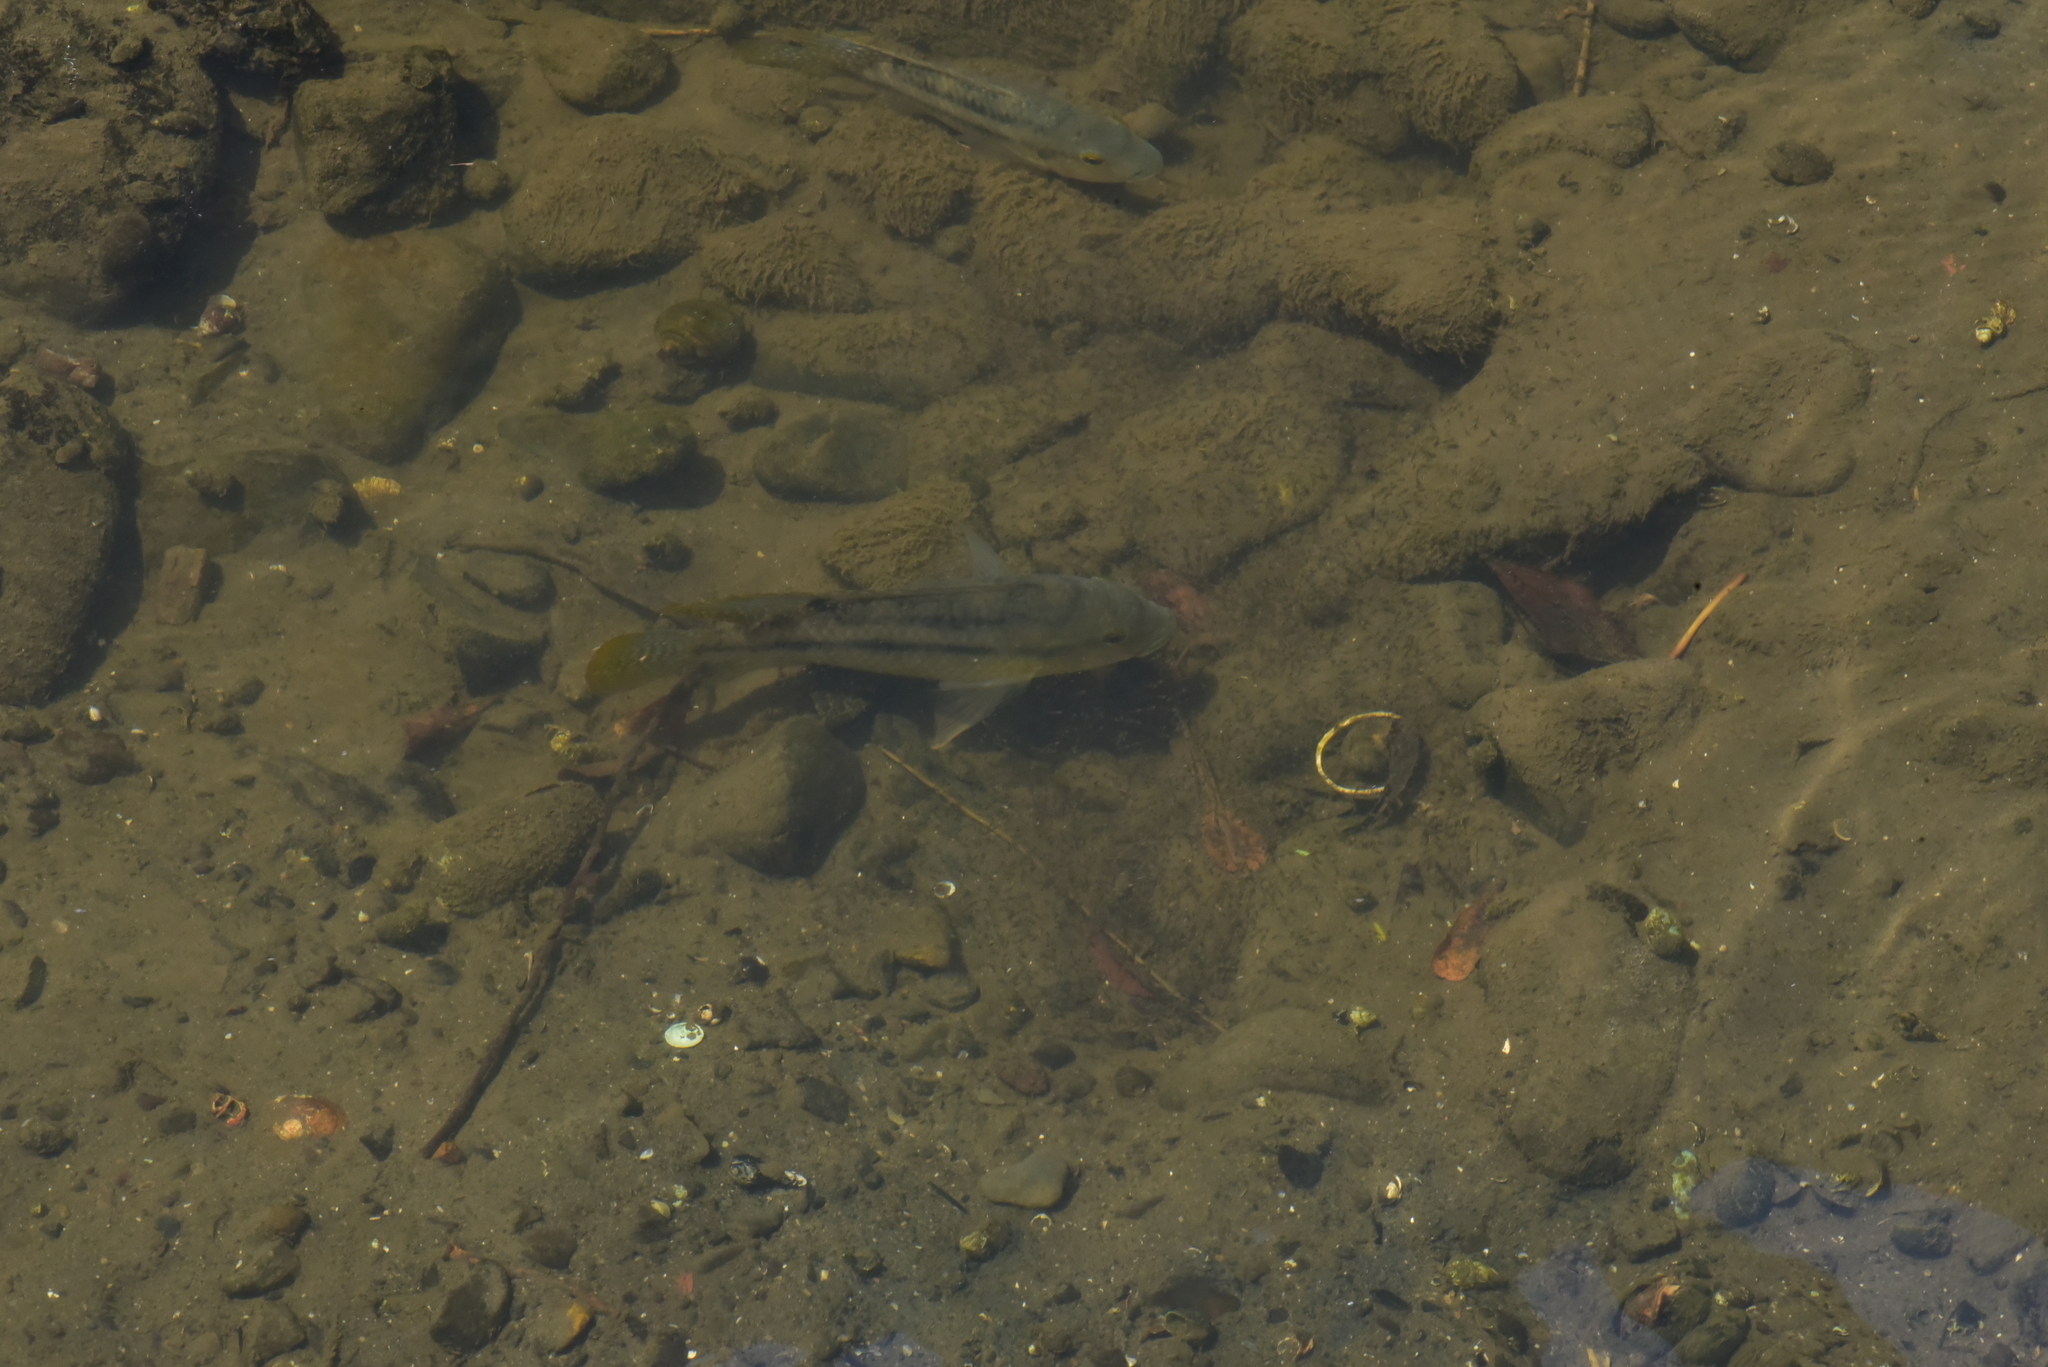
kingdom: Animalia
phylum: Chordata
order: Perciformes
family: Cichlidae
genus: Coptodon
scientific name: Coptodon zillii
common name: Redbelly tilapia
